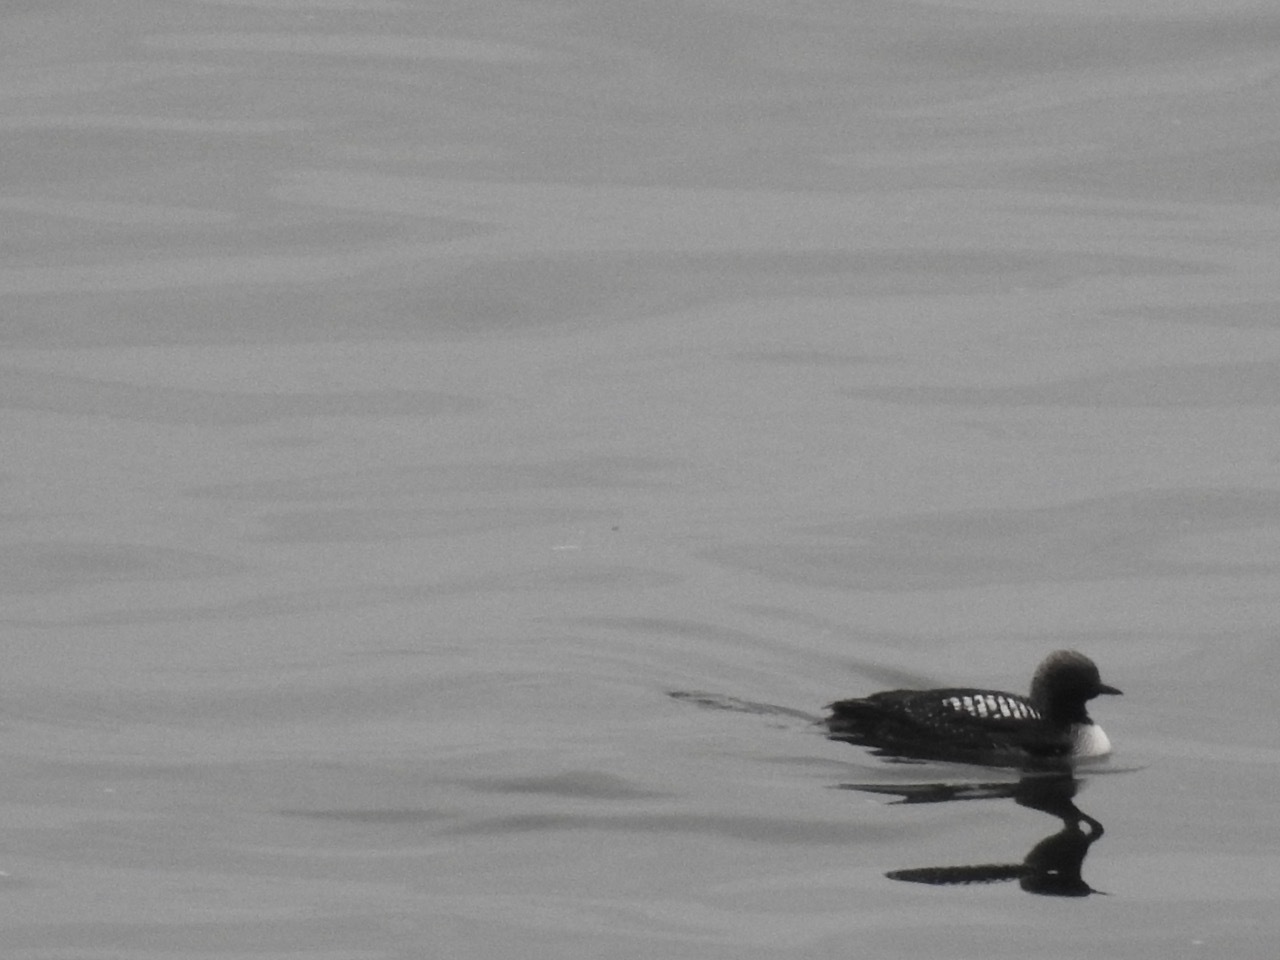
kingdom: Animalia
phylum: Chordata
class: Aves
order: Gaviiformes
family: Gaviidae
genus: Gavia
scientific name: Gavia pacifica
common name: Pacific loon
